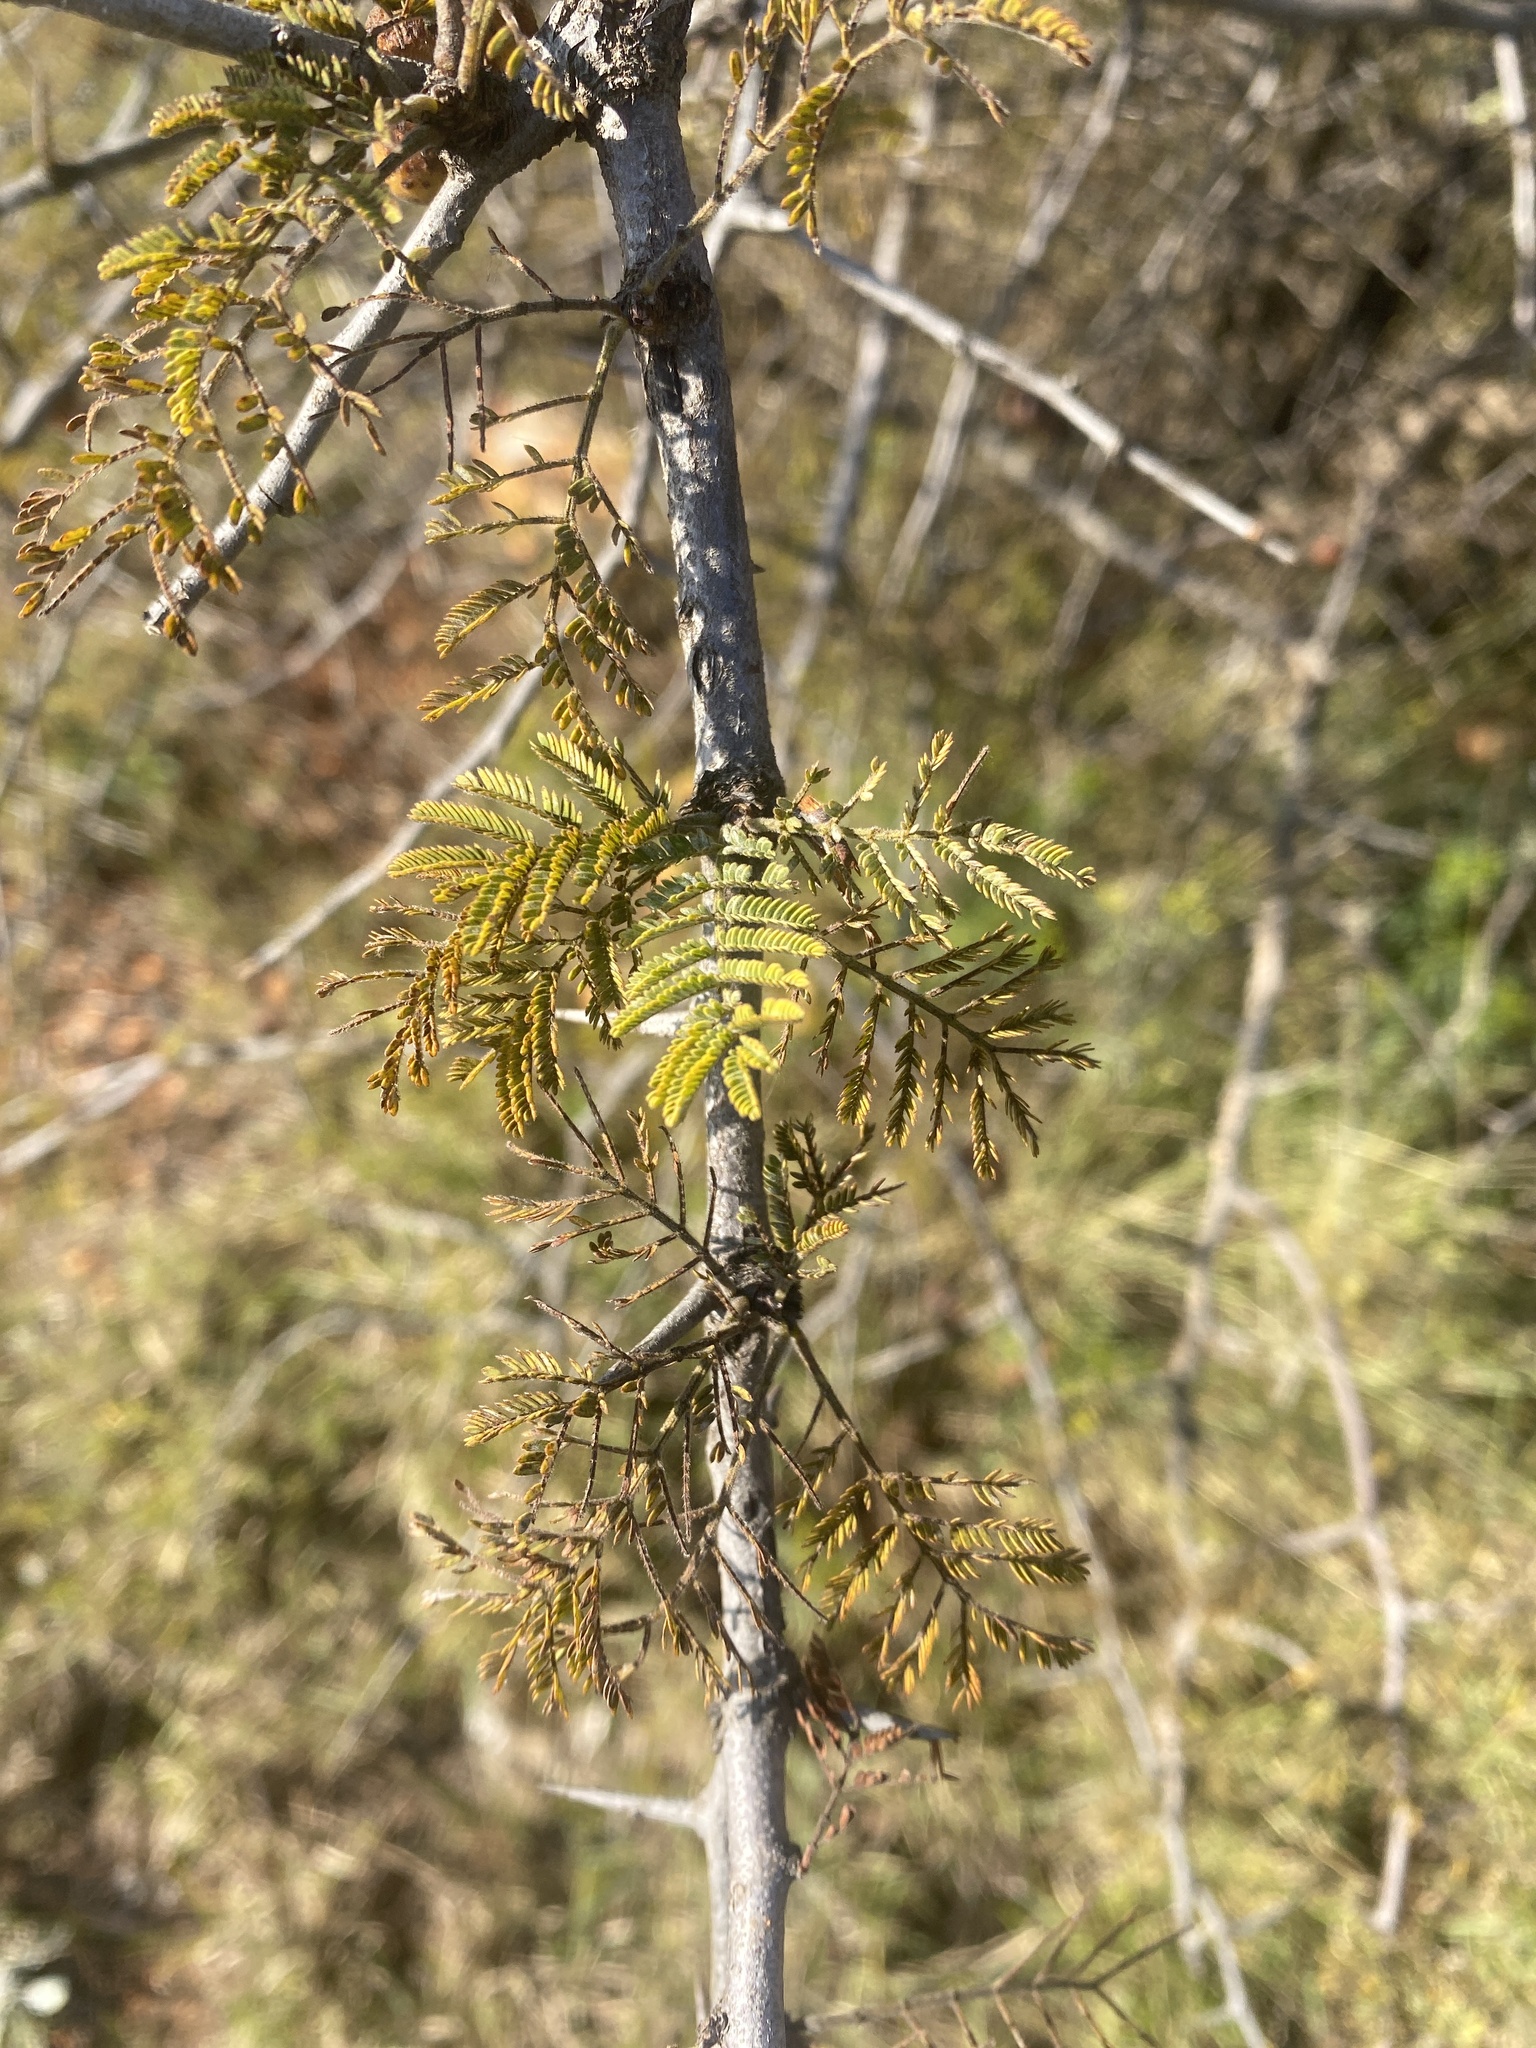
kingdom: Plantae
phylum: Tracheophyta
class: Magnoliopsida
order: Fabales
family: Fabaceae
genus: Dichrostachys
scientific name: Dichrostachys cinerea
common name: Sicklebush
